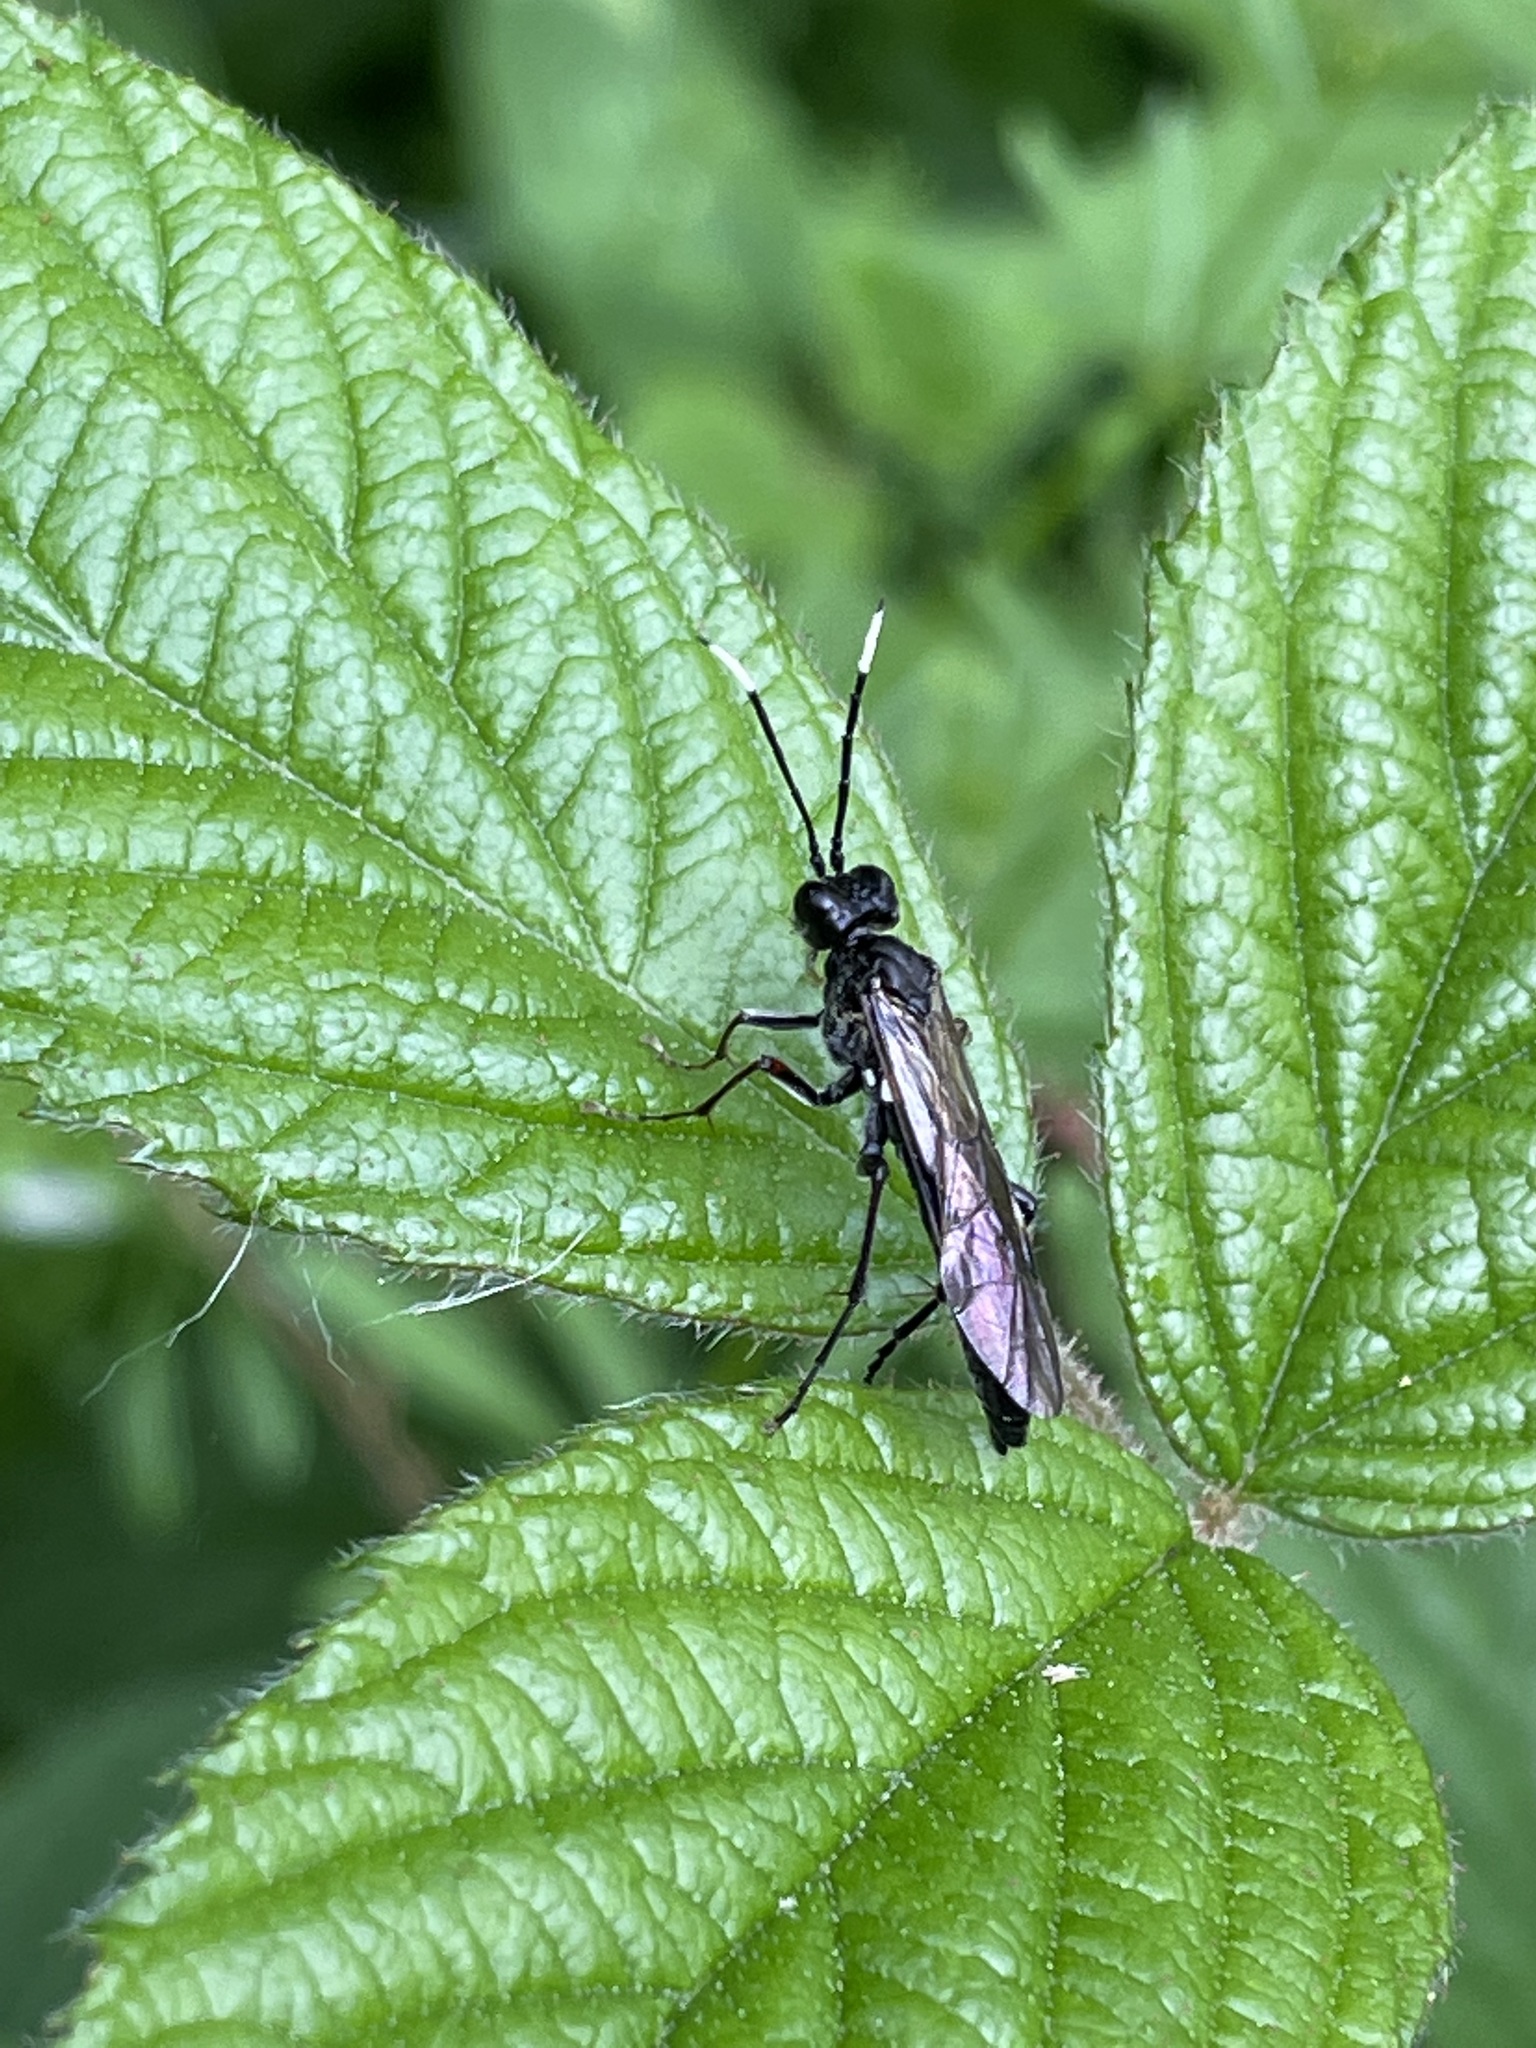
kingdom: Animalia
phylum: Arthropoda
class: Insecta
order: Hymenoptera
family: Tenthredinidae
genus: Tenthredo
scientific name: Tenthredo livida
